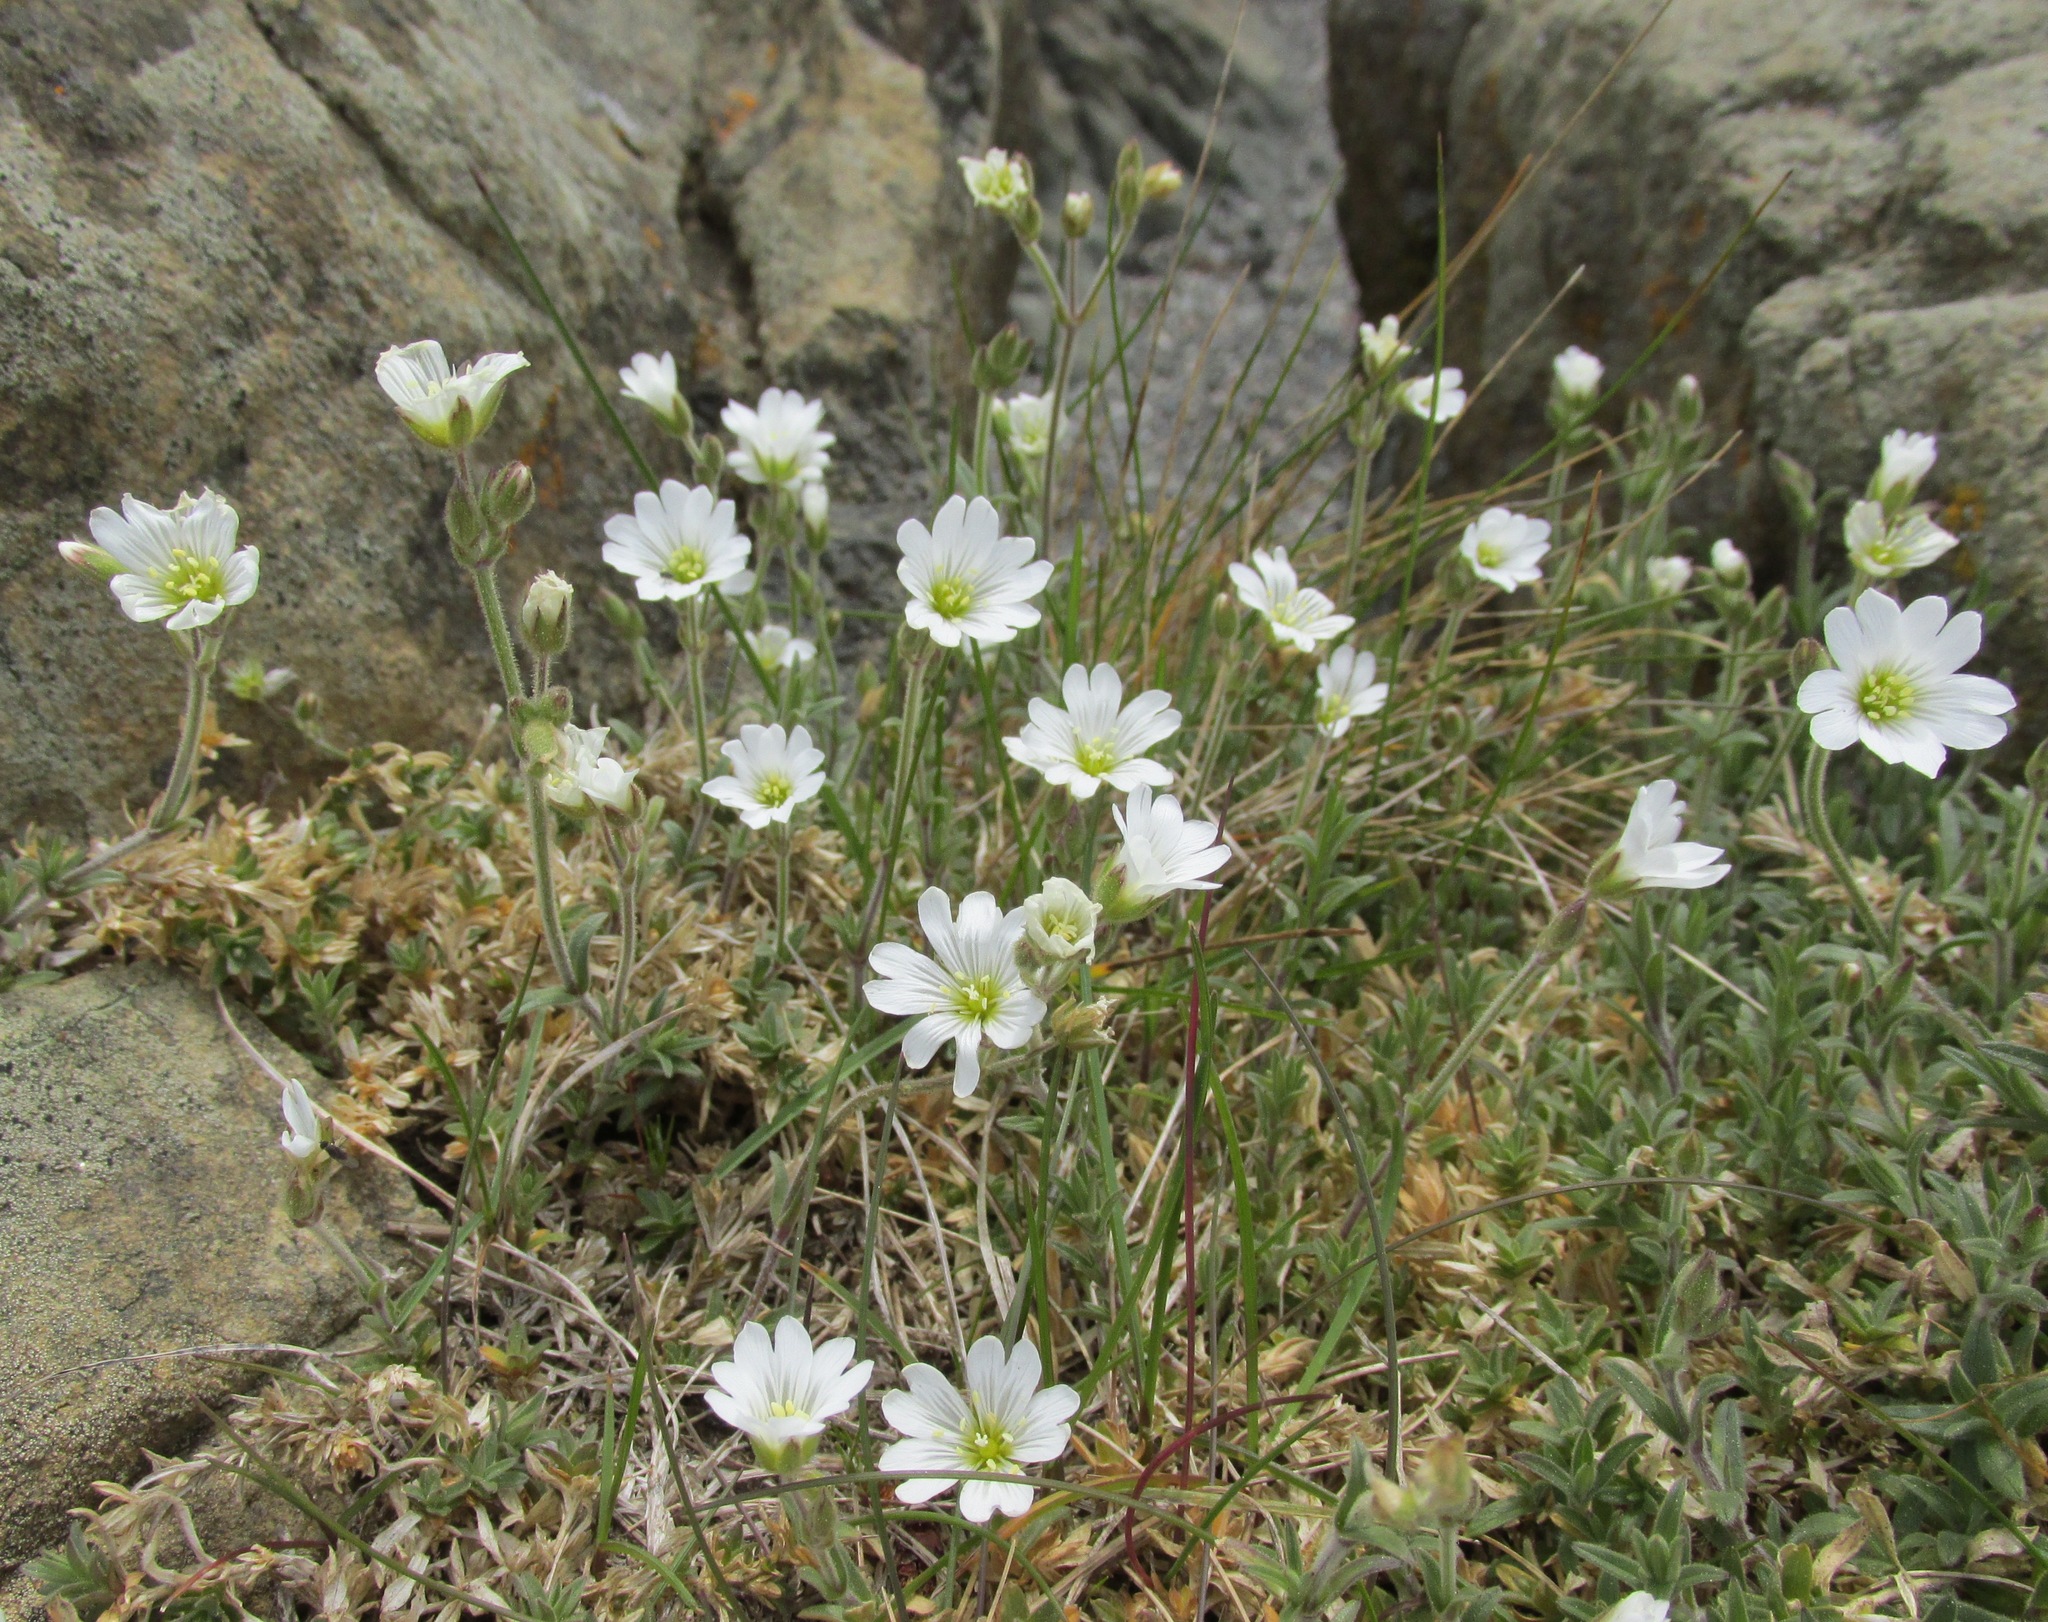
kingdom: Plantae
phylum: Tracheophyta
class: Magnoliopsida
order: Caryophyllales
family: Caryophyllaceae
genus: Cerastium
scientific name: Cerastium arvense
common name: Field mouse-ear
